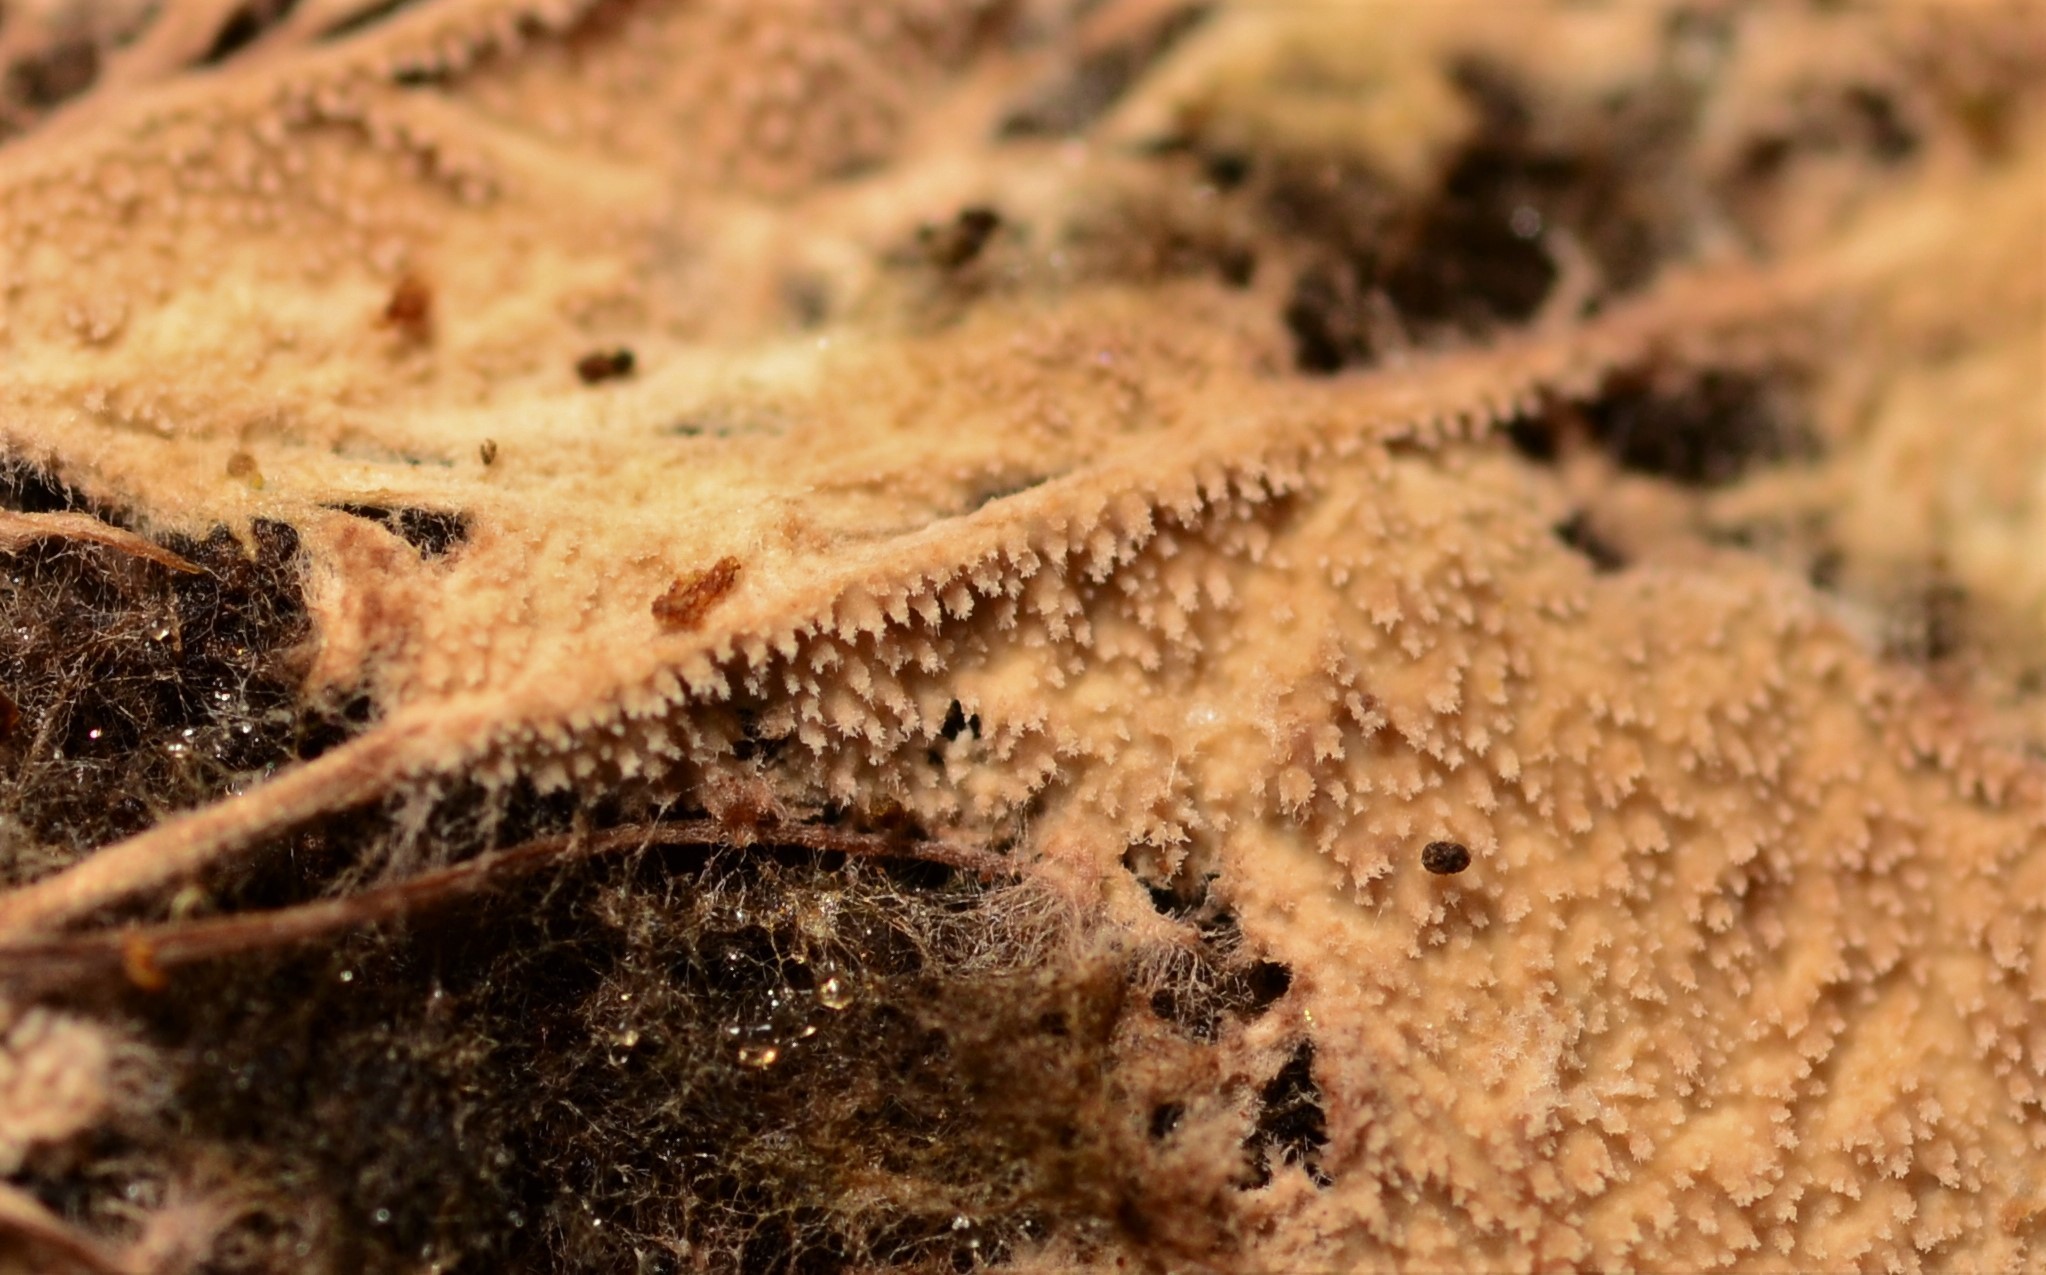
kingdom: Fungi
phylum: Basidiomycota
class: Agaricomycetes
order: Polyporales
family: Steccherinaceae
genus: Steccherinum
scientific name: Steccherinum fimbriatum
